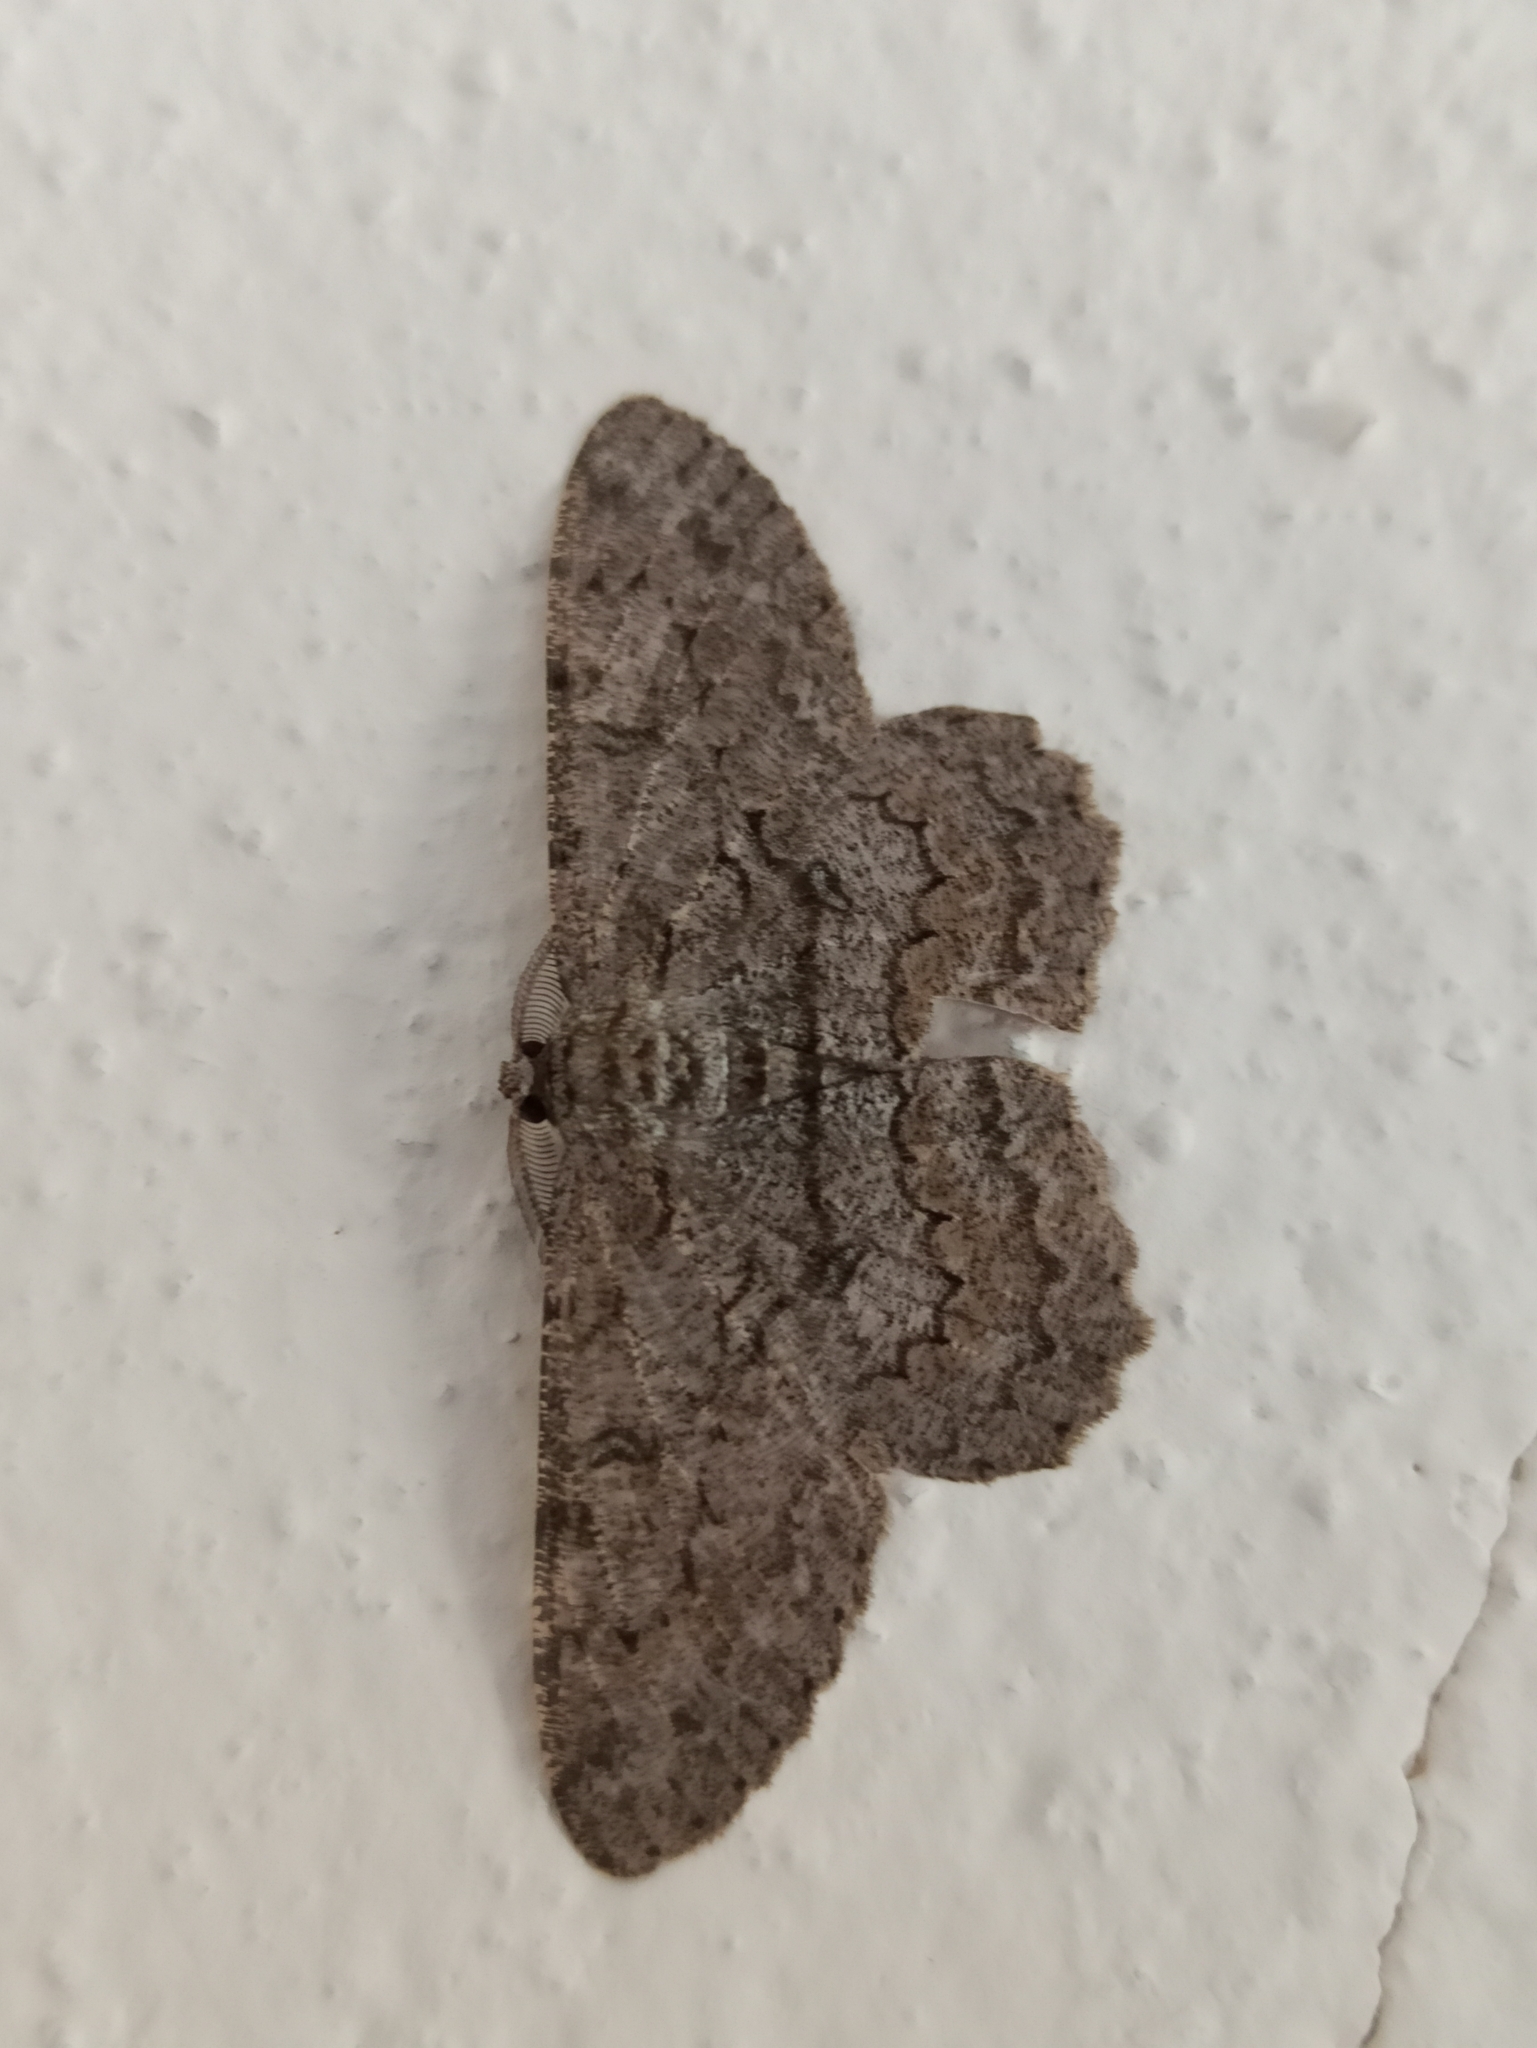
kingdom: Animalia
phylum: Arthropoda
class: Insecta
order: Lepidoptera
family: Geometridae
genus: Hypomecis
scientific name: Hypomecis punctinalis
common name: Pale oak beauty
